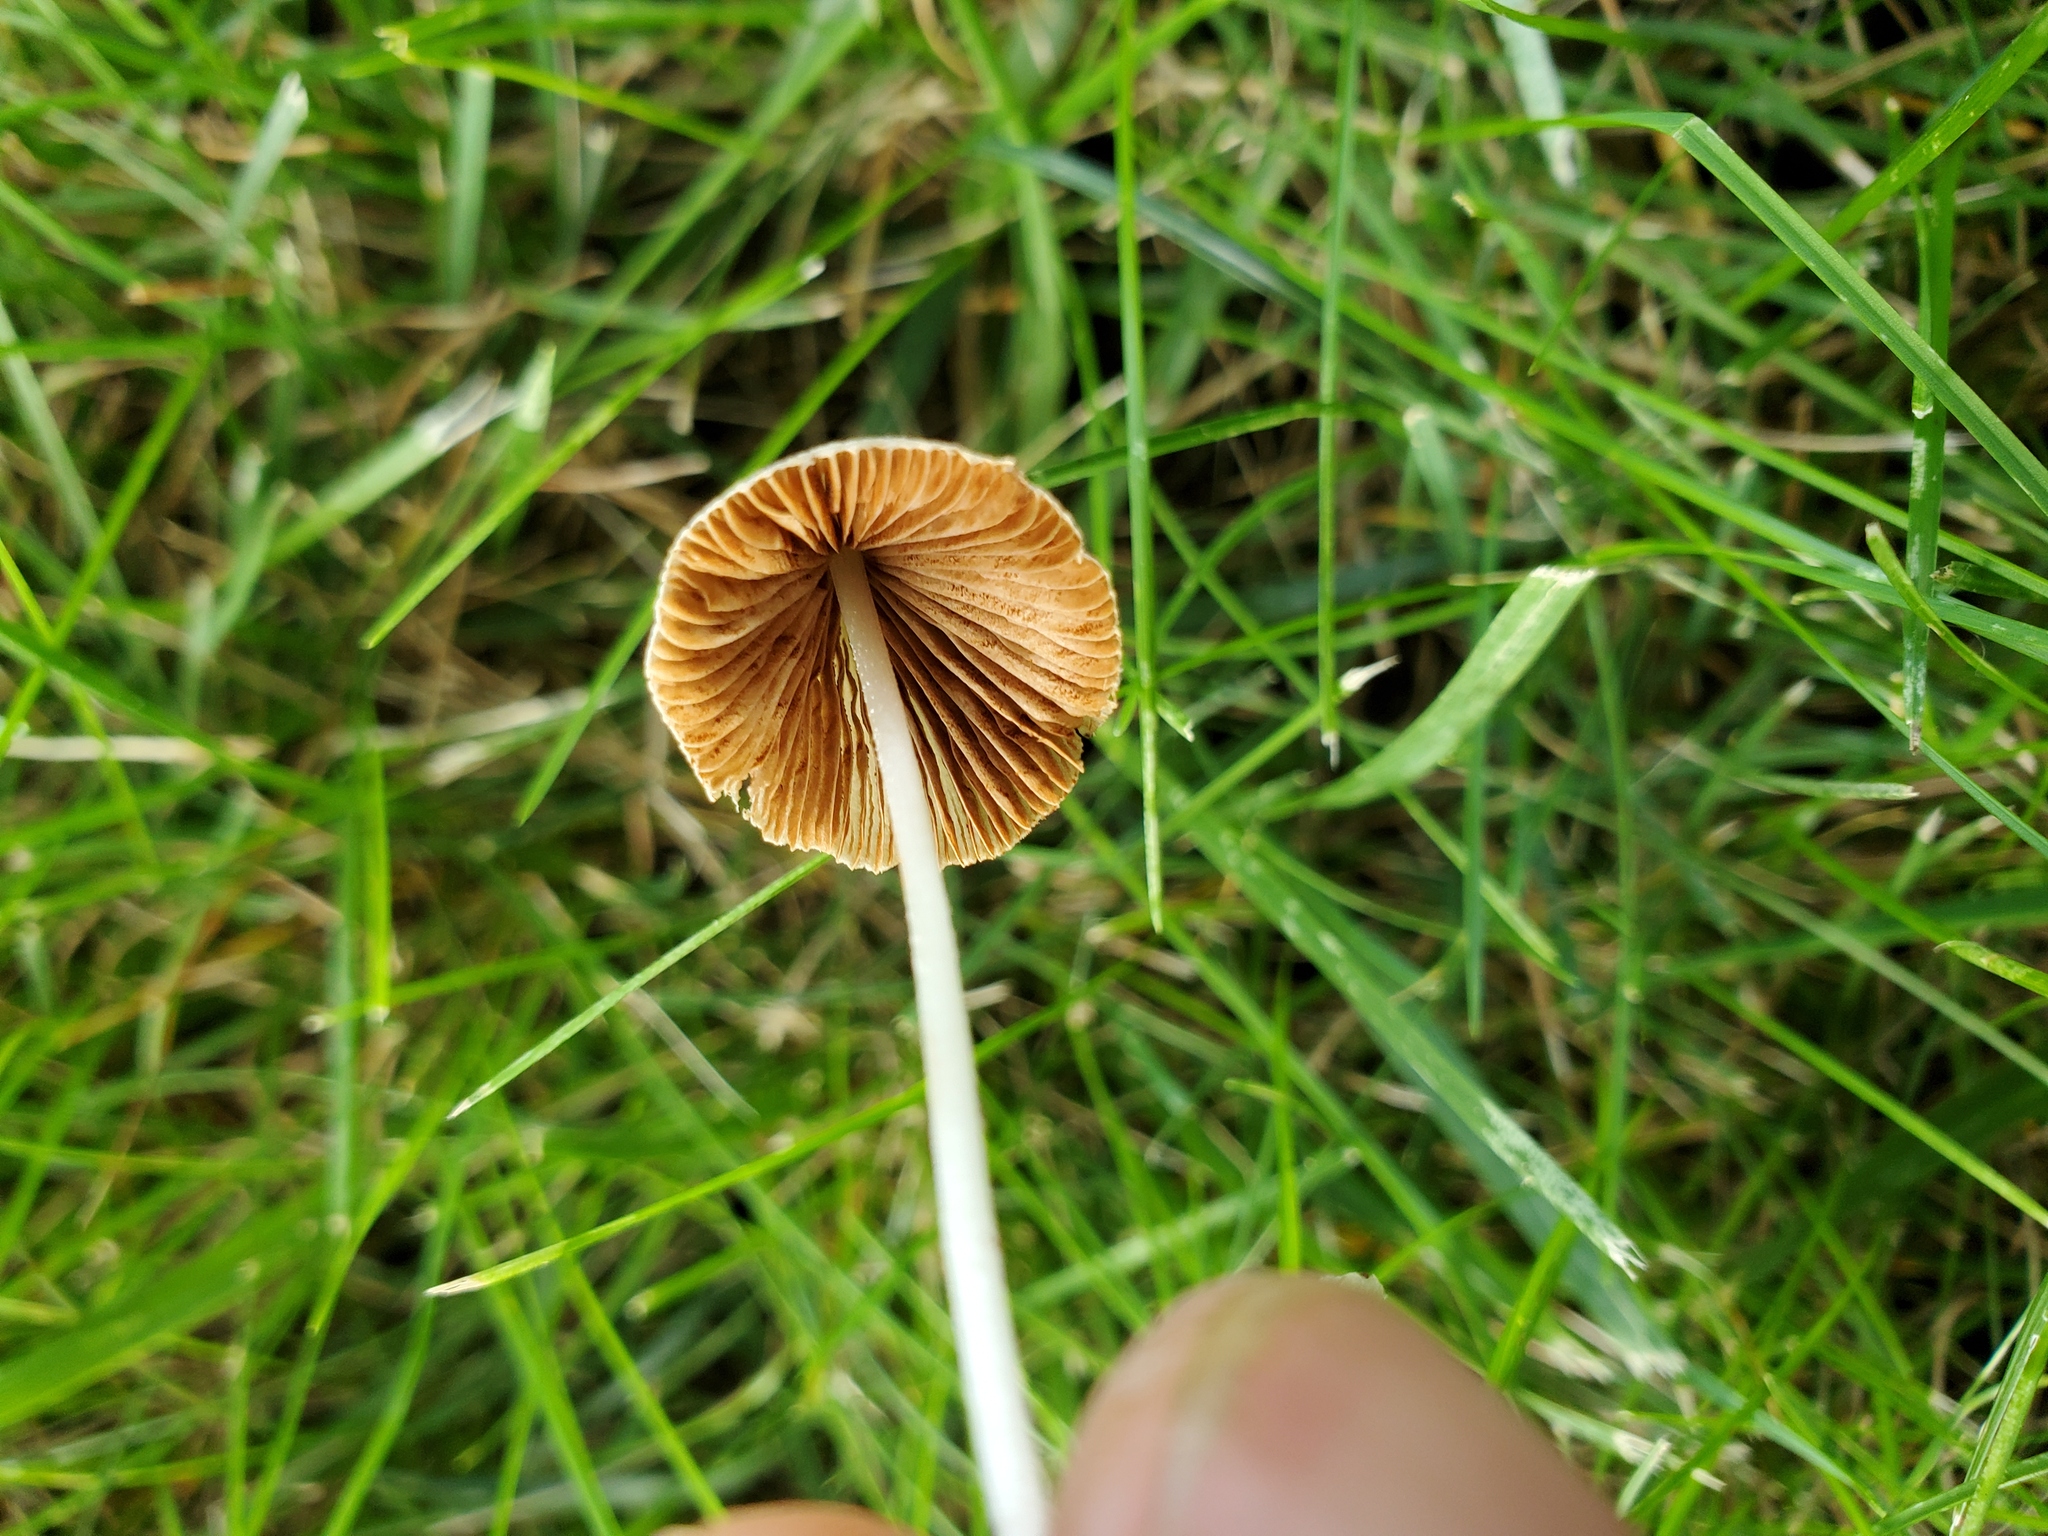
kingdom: Fungi
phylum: Basidiomycota
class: Agaricomycetes
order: Agaricales
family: Bolbitiaceae
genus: Conocybe
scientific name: Conocybe apala
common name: Milky conecap
